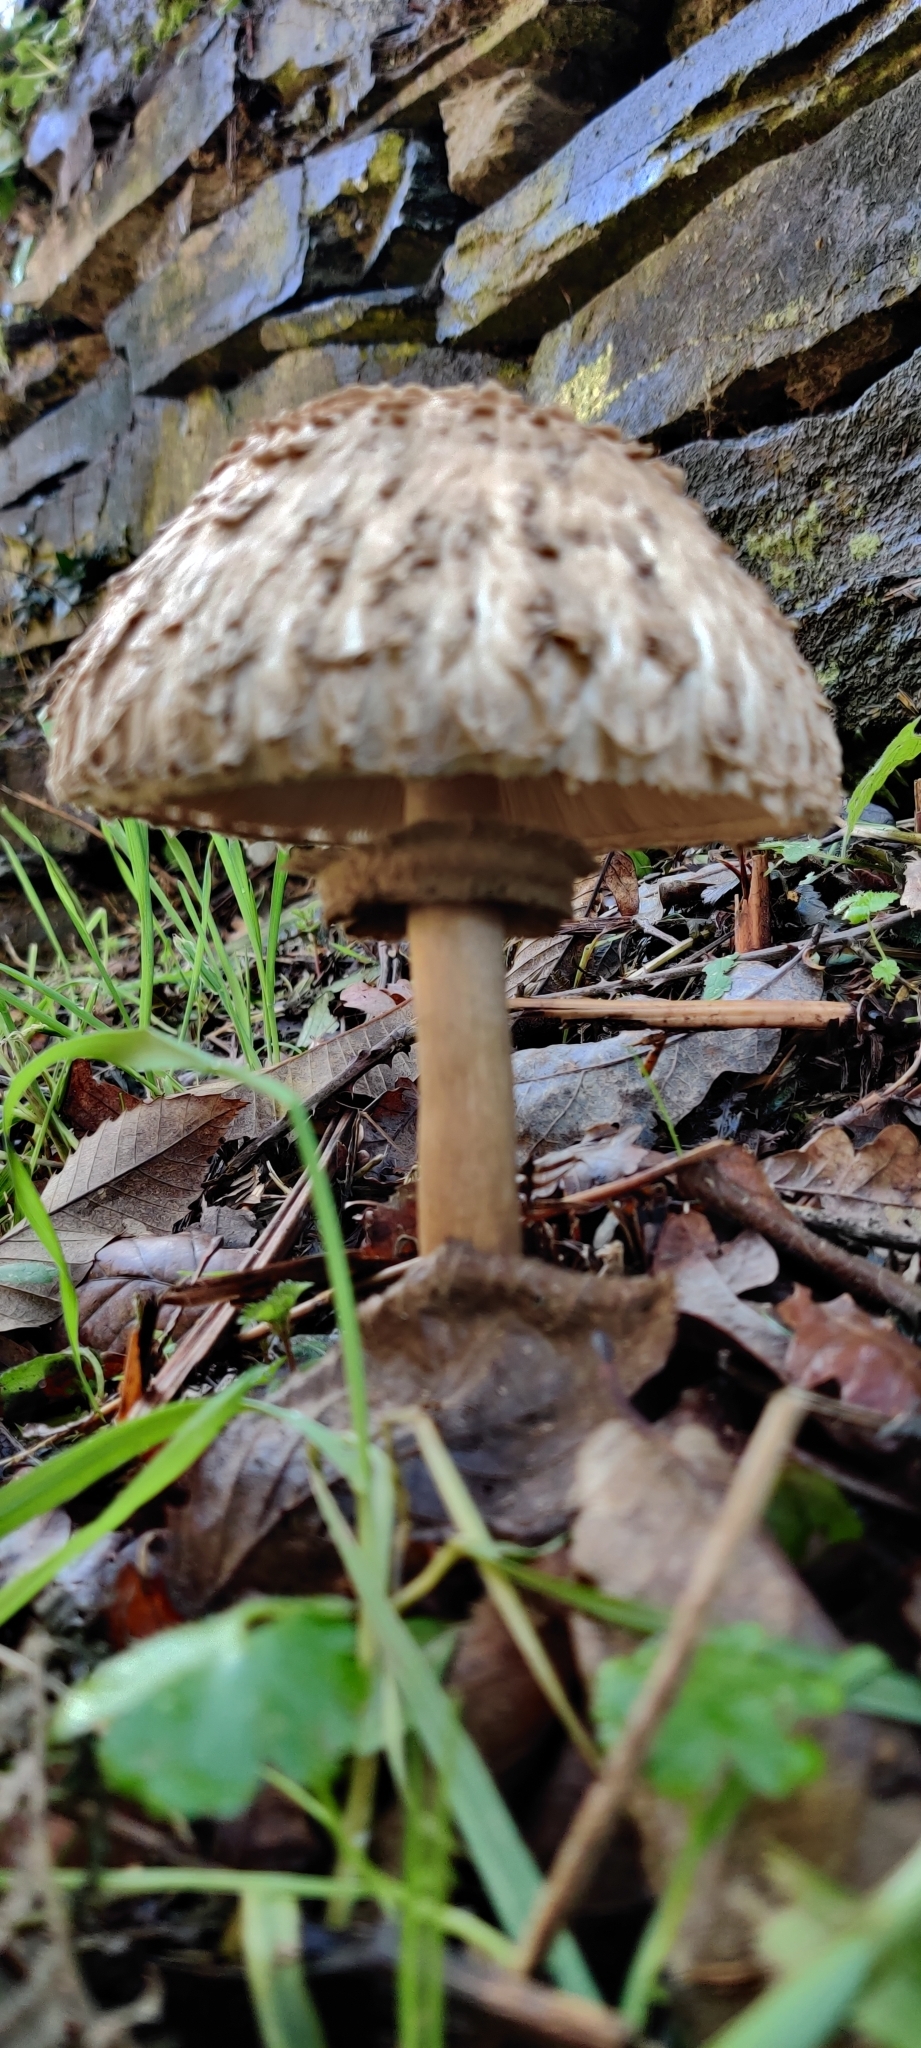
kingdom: Fungi
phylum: Basidiomycota
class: Agaricomycetes
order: Agaricales
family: Agaricaceae
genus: Macrolepiota
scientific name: Macrolepiota procera
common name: Parasol
